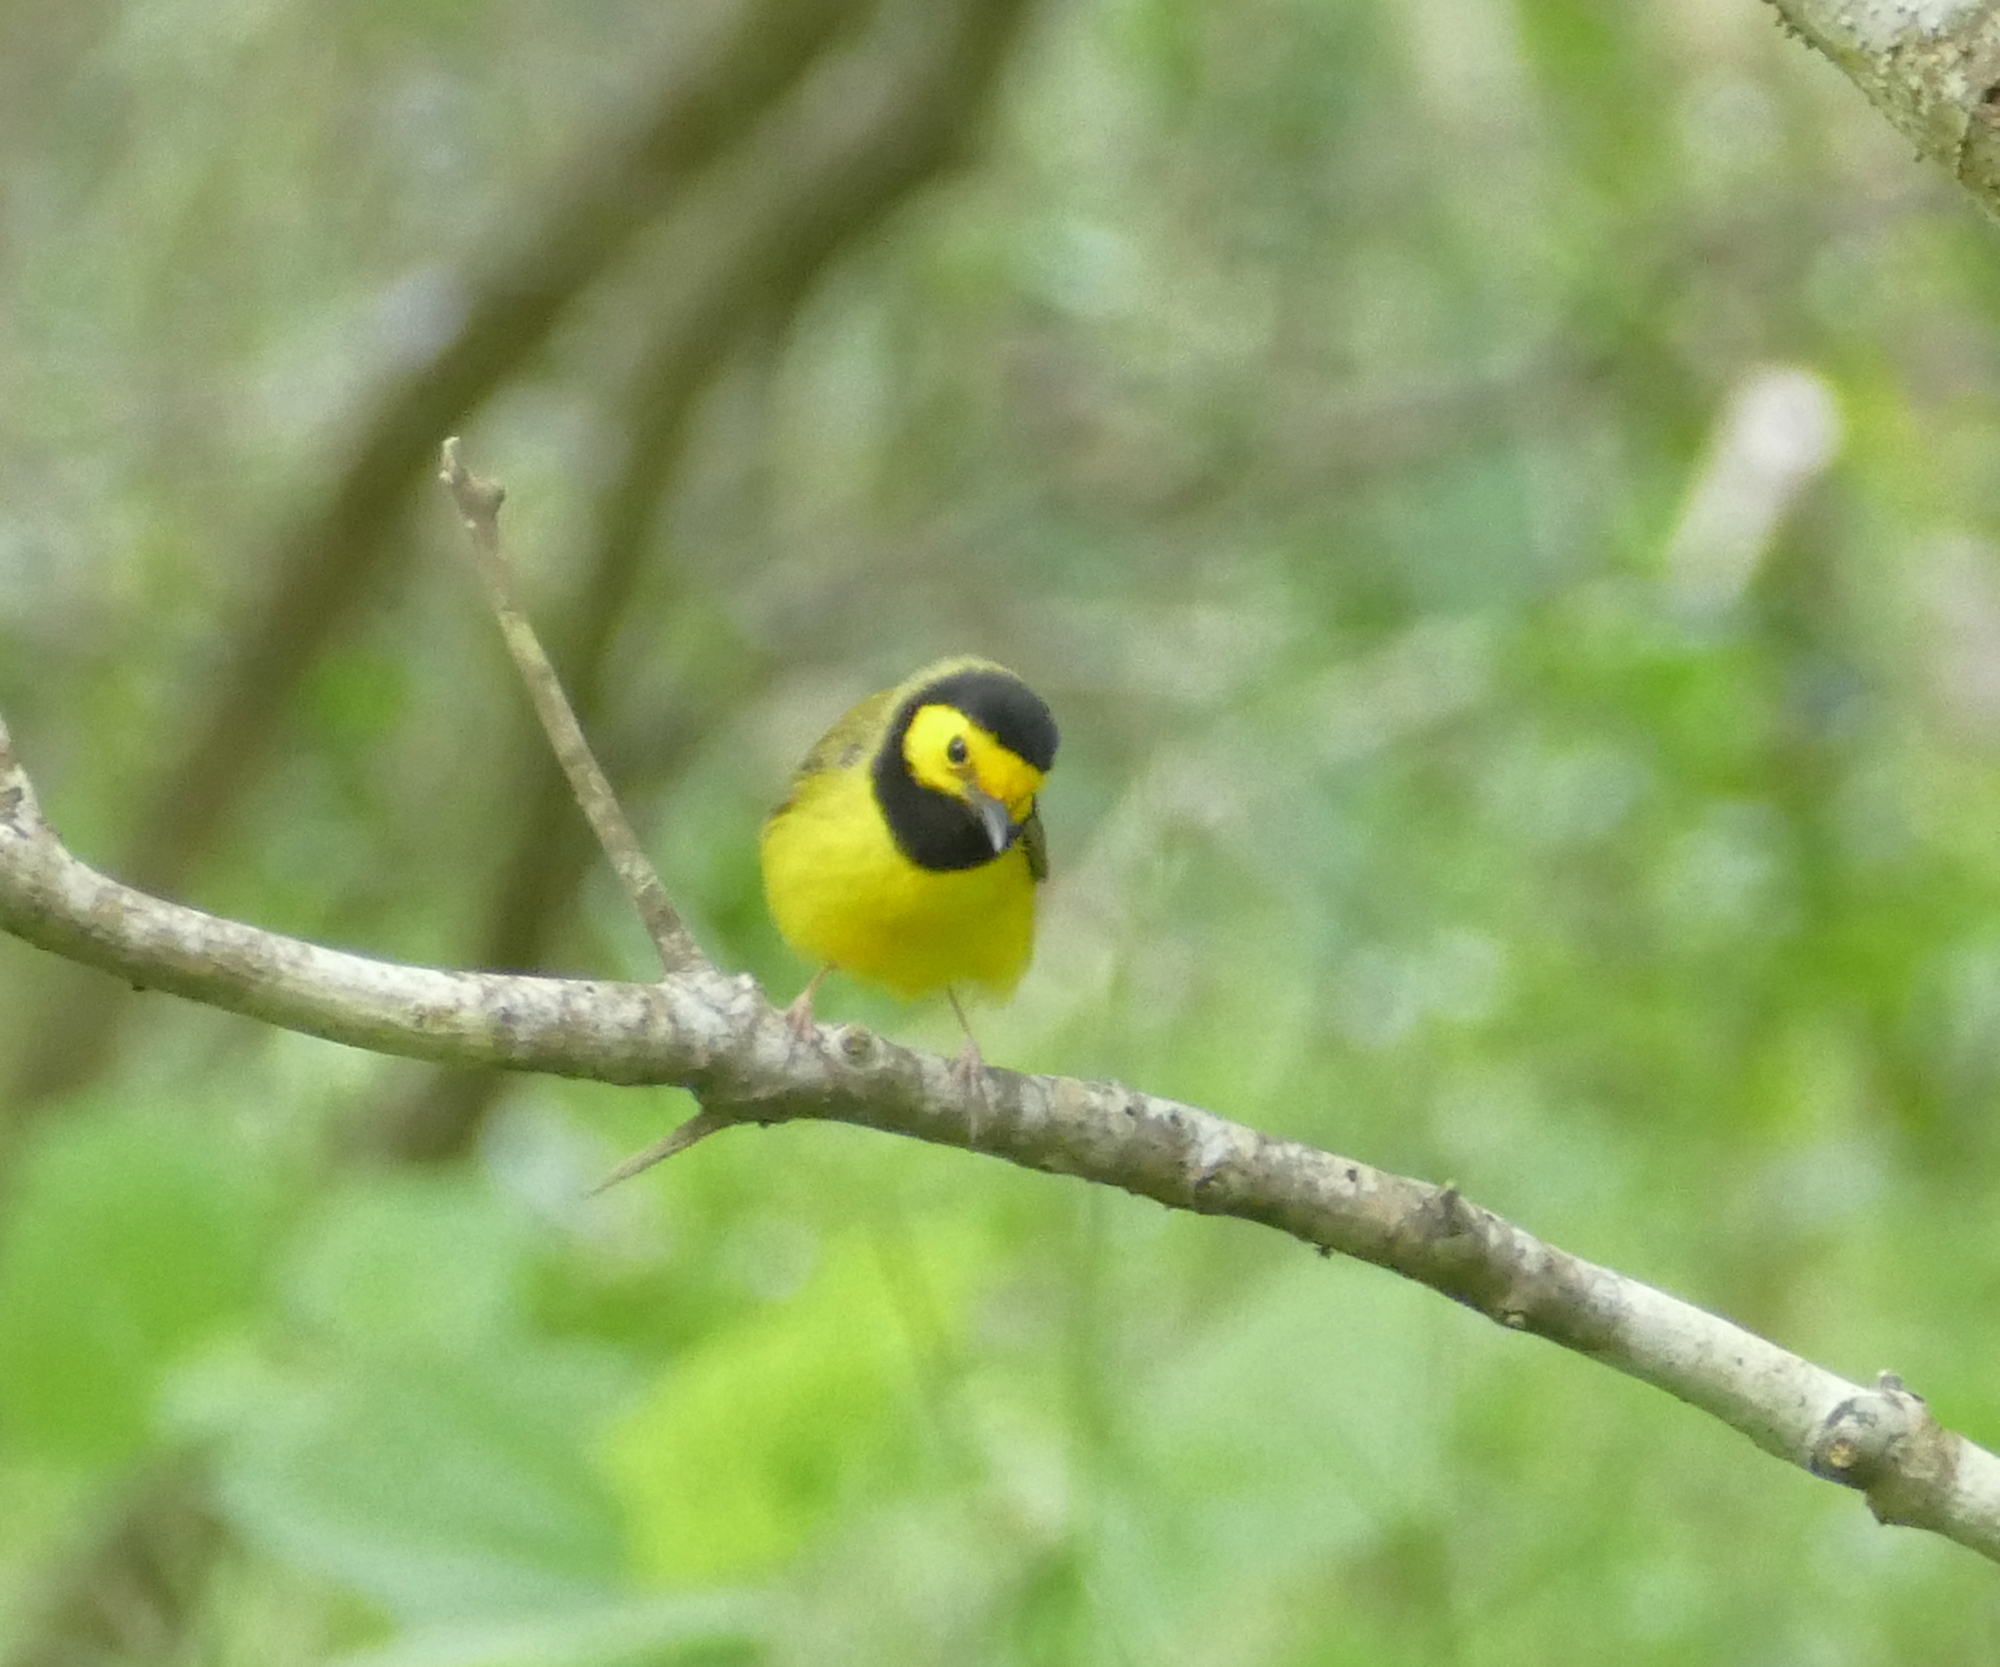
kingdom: Animalia
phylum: Chordata
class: Aves
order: Passeriformes
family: Parulidae
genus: Setophaga
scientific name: Setophaga citrina
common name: Hooded warbler
